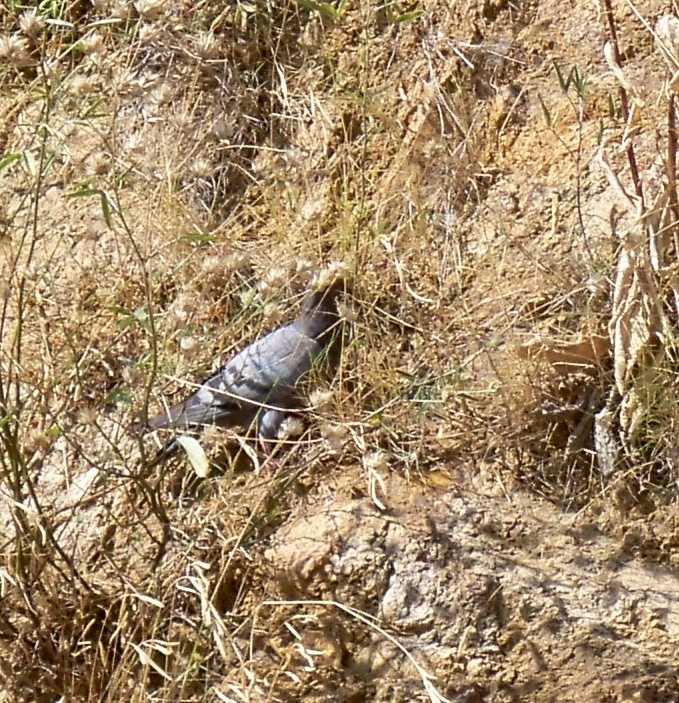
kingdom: Animalia
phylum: Chordata
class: Aves
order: Columbiformes
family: Columbidae
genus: Columba
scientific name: Columba livia
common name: Rock pigeon
